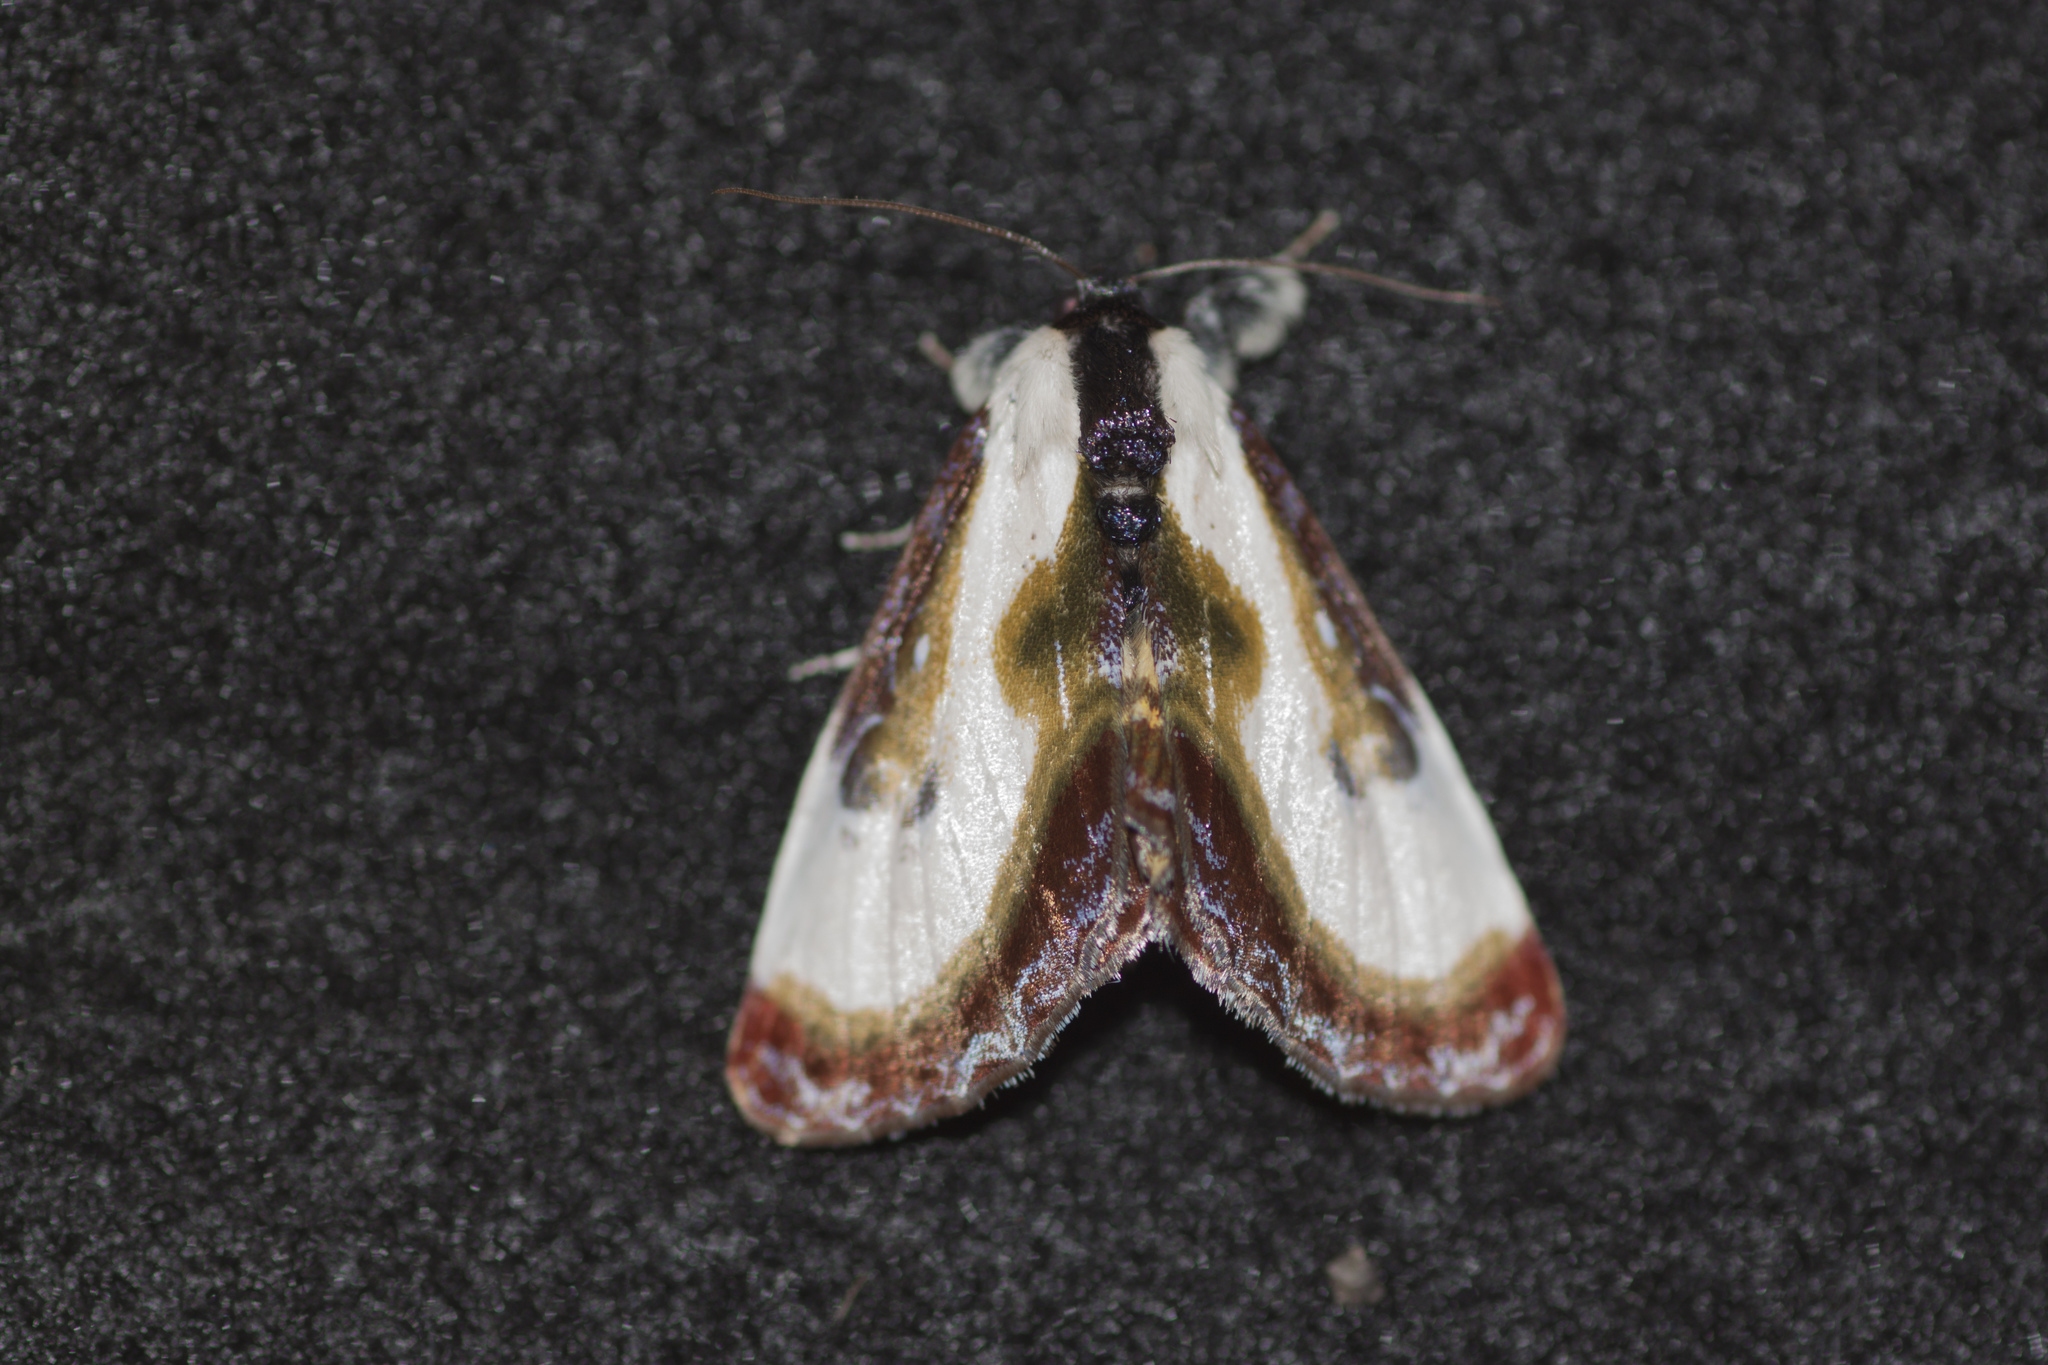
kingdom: Animalia
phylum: Arthropoda
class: Insecta
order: Lepidoptera
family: Noctuidae
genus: Eudryas
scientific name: Eudryas grata
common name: Beautiful wood-nymph
